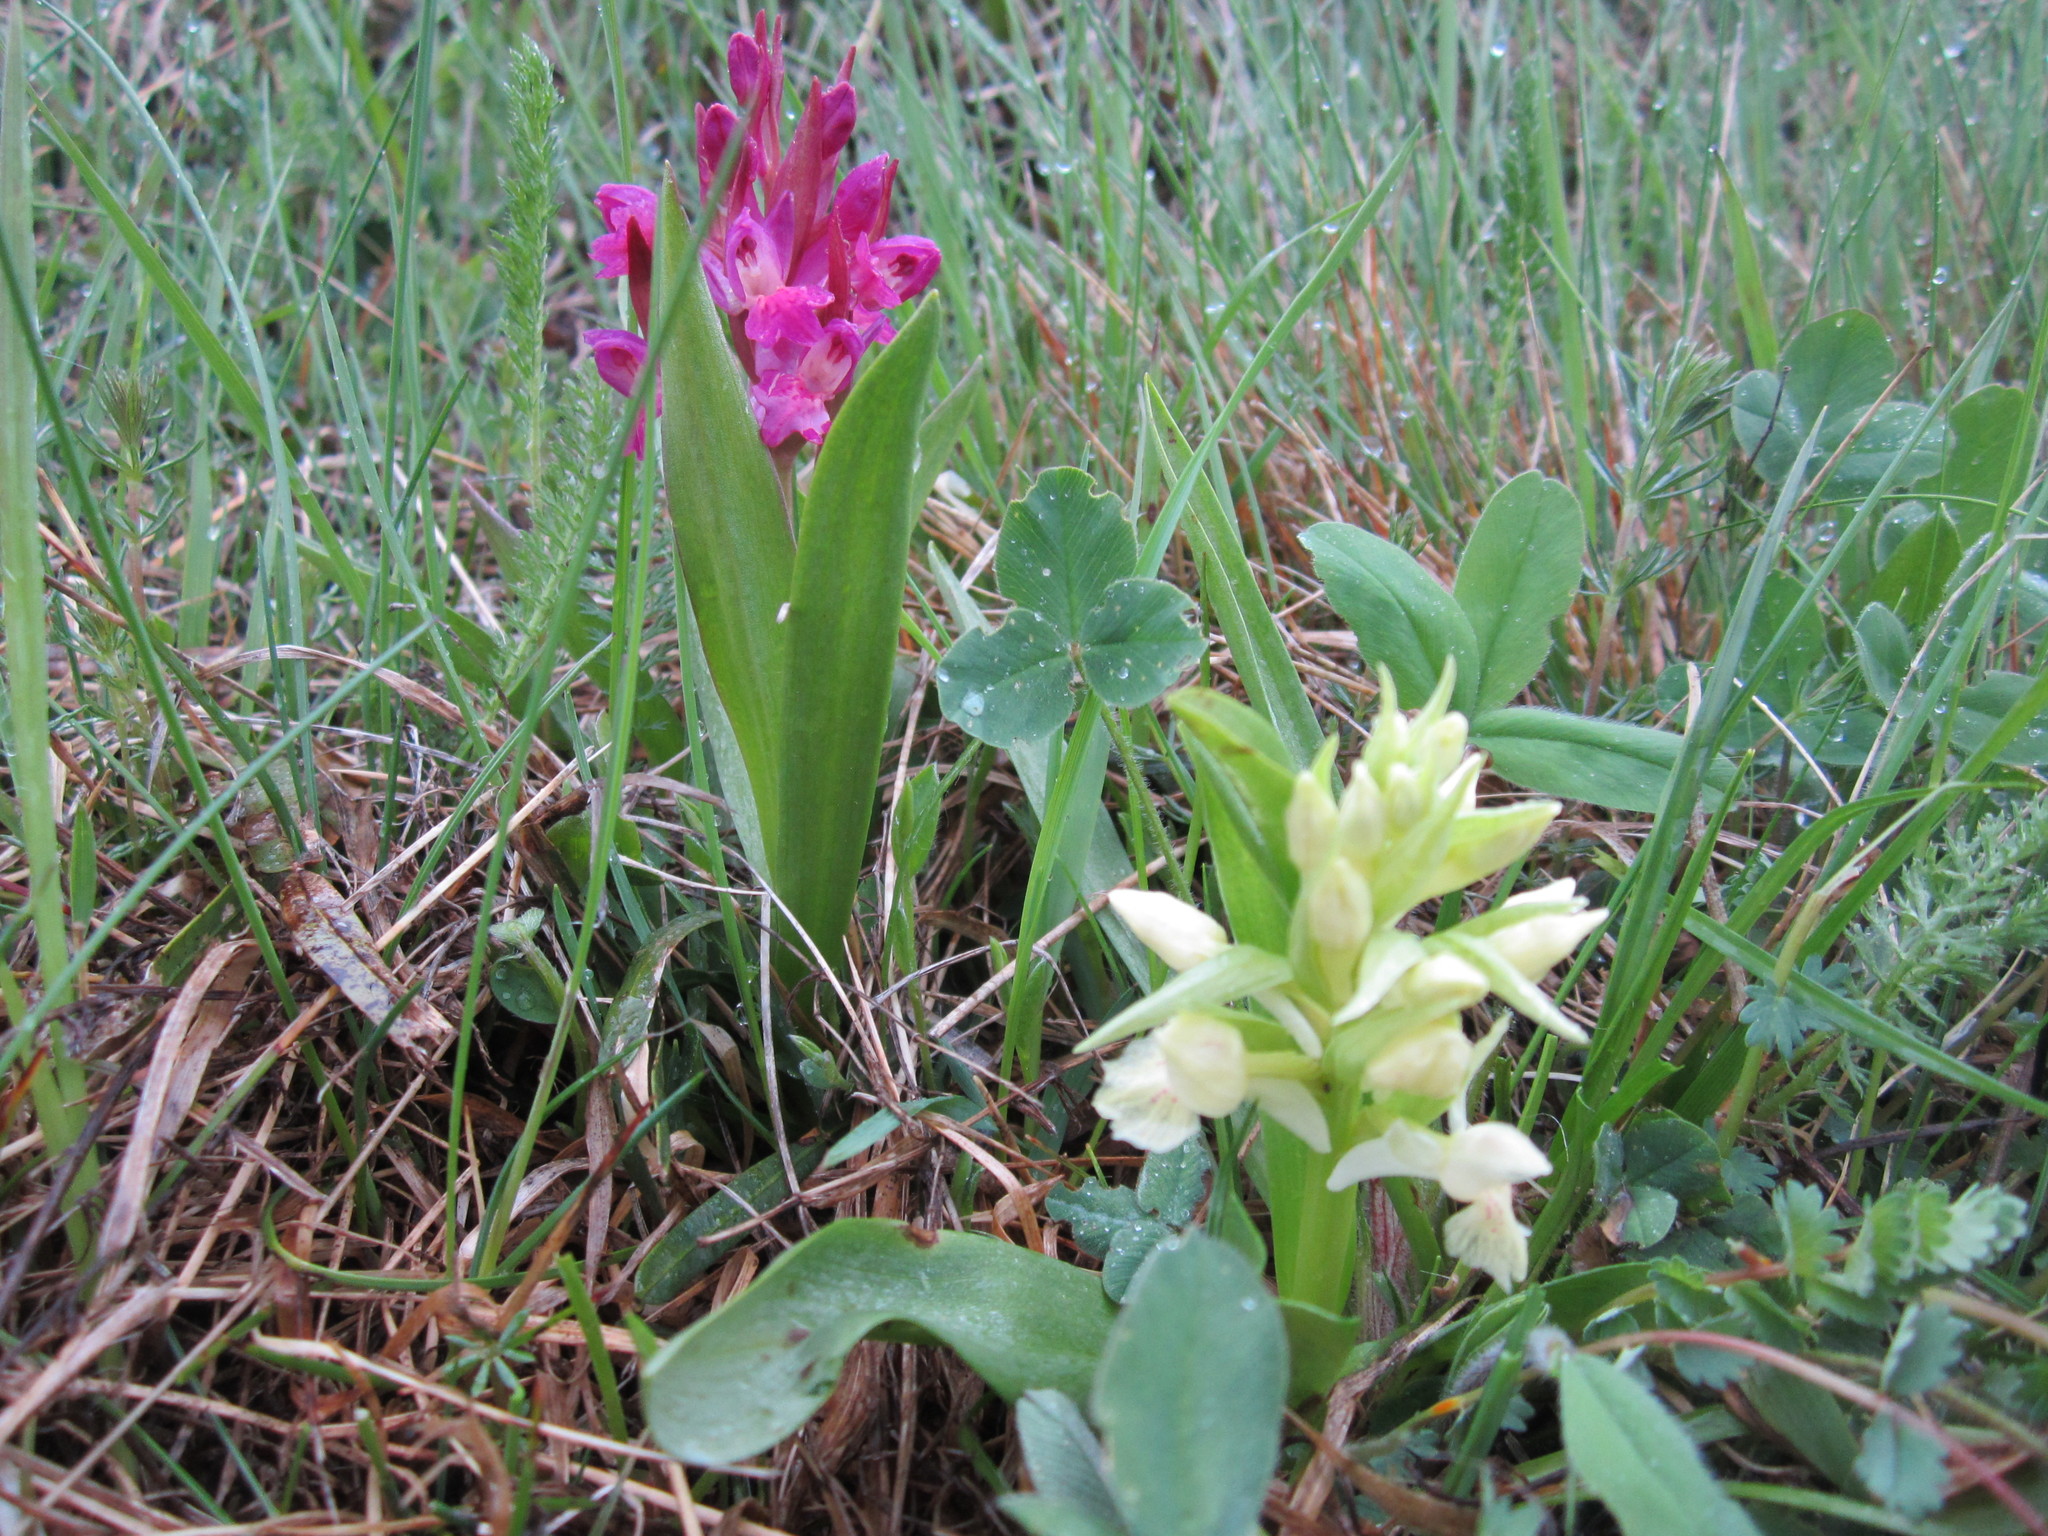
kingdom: Plantae
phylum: Tracheophyta
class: Liliopsida
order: Asparagales
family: Orchidaceae
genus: Dactylorhiza
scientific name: Dactylorhiza sambucina
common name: Elder-flowered orchid
